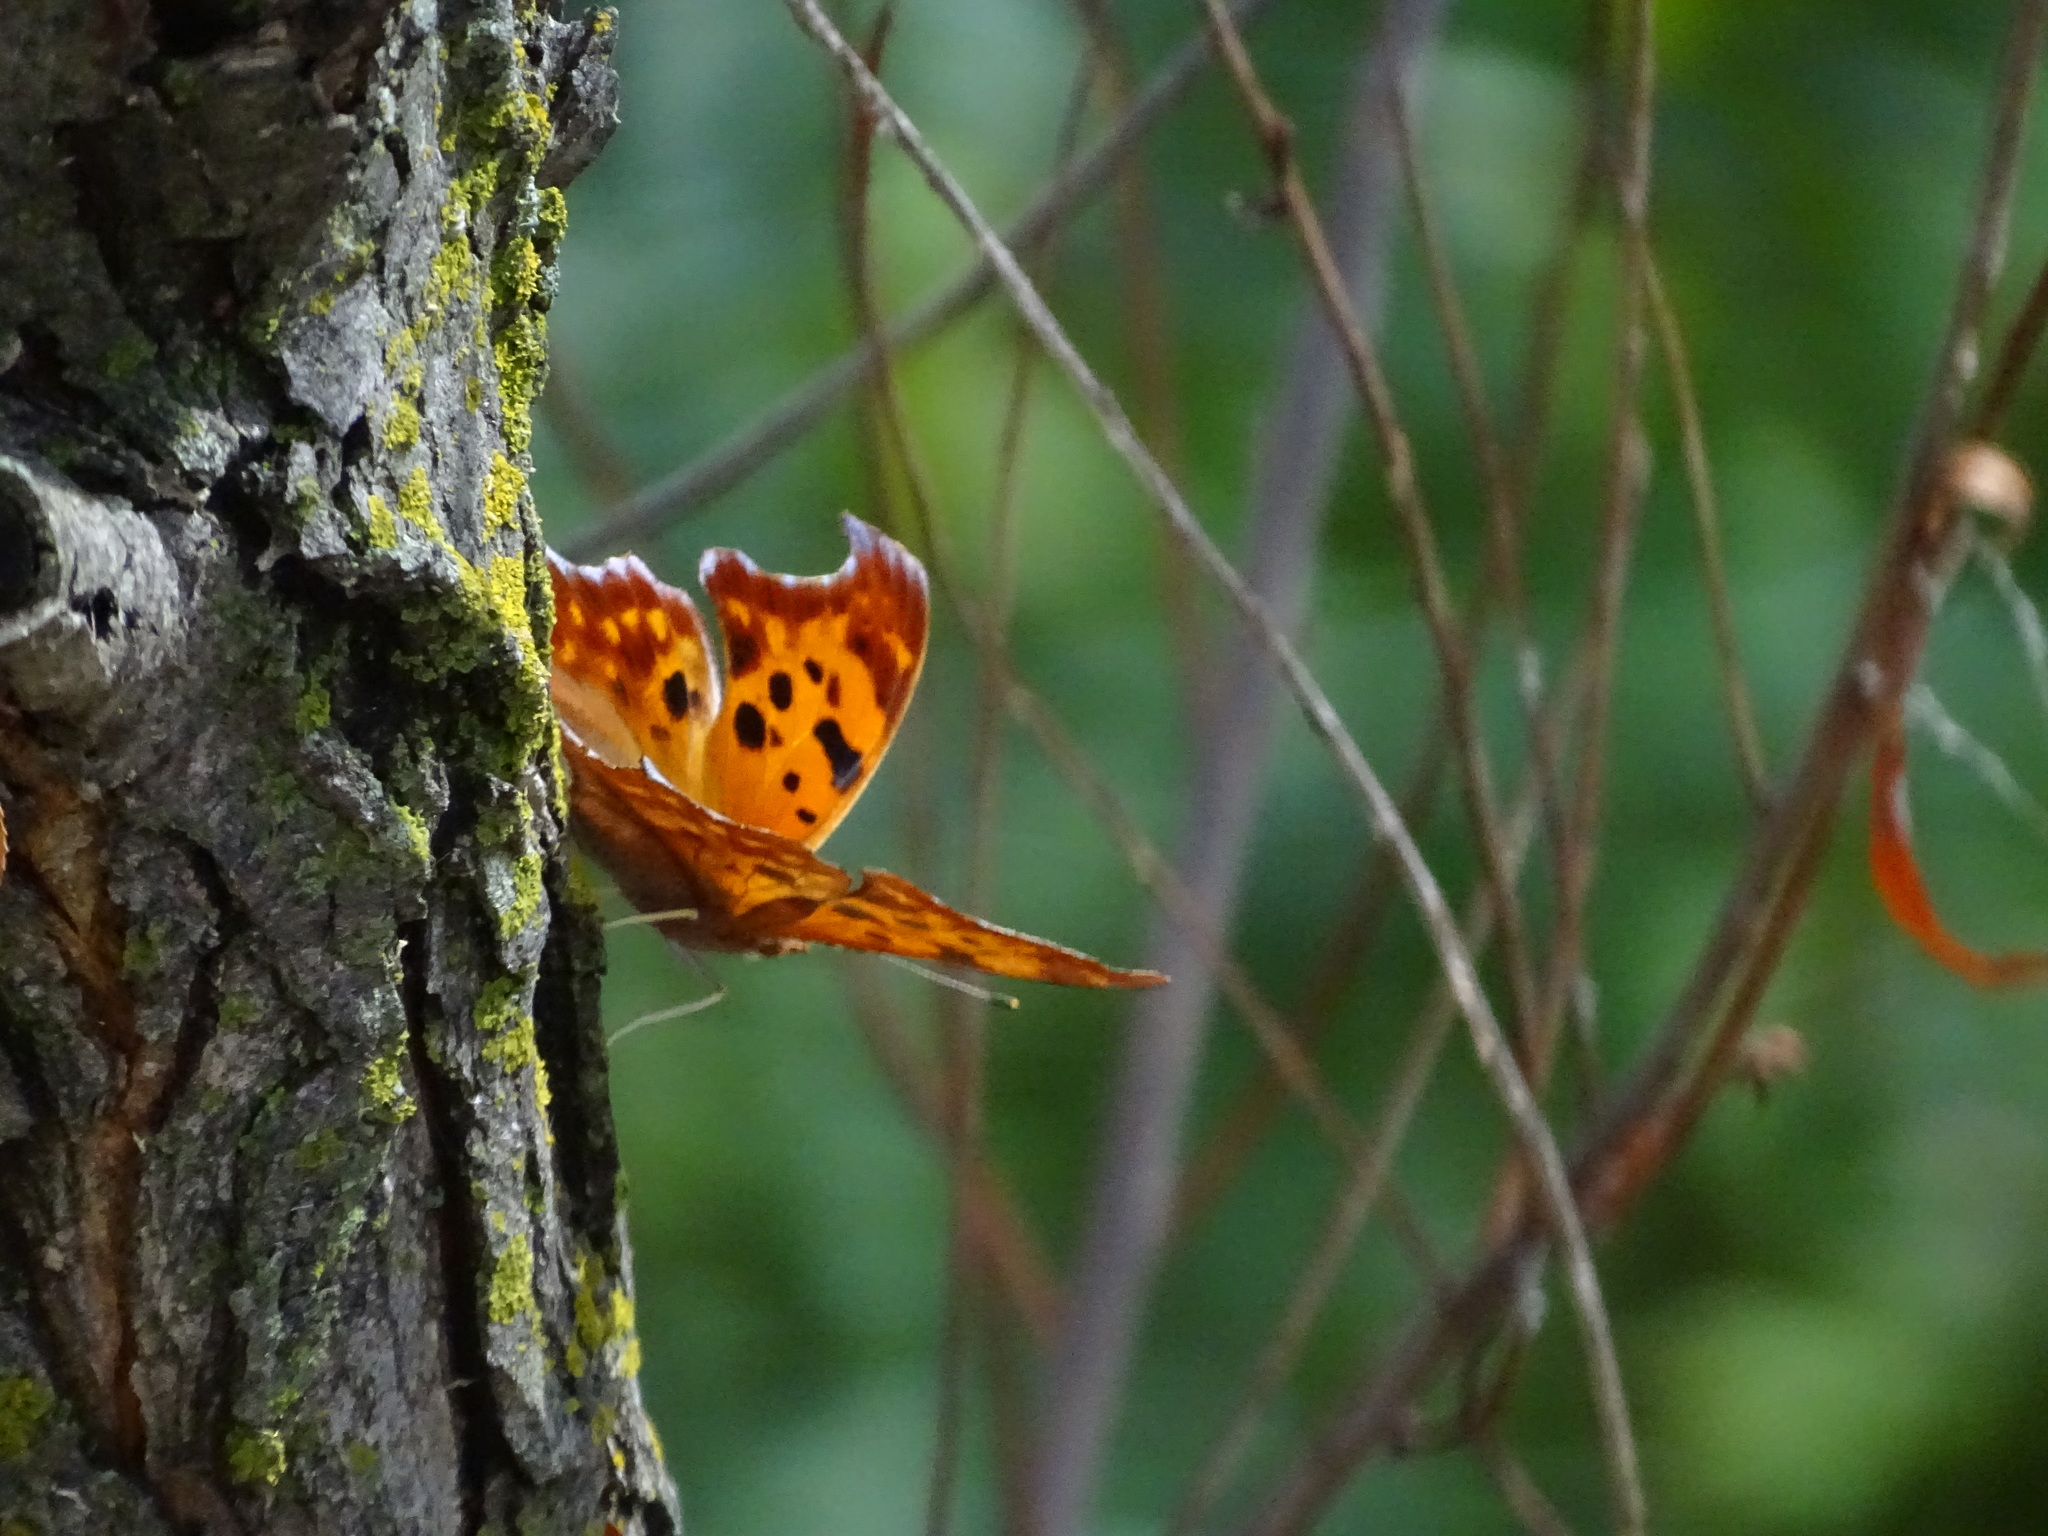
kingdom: Animalia
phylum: Arthropoda
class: Insecta
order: Lepidoptera
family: Nymphalidae
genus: Polygonia
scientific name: Polygonia interrogationis
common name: Question mark
